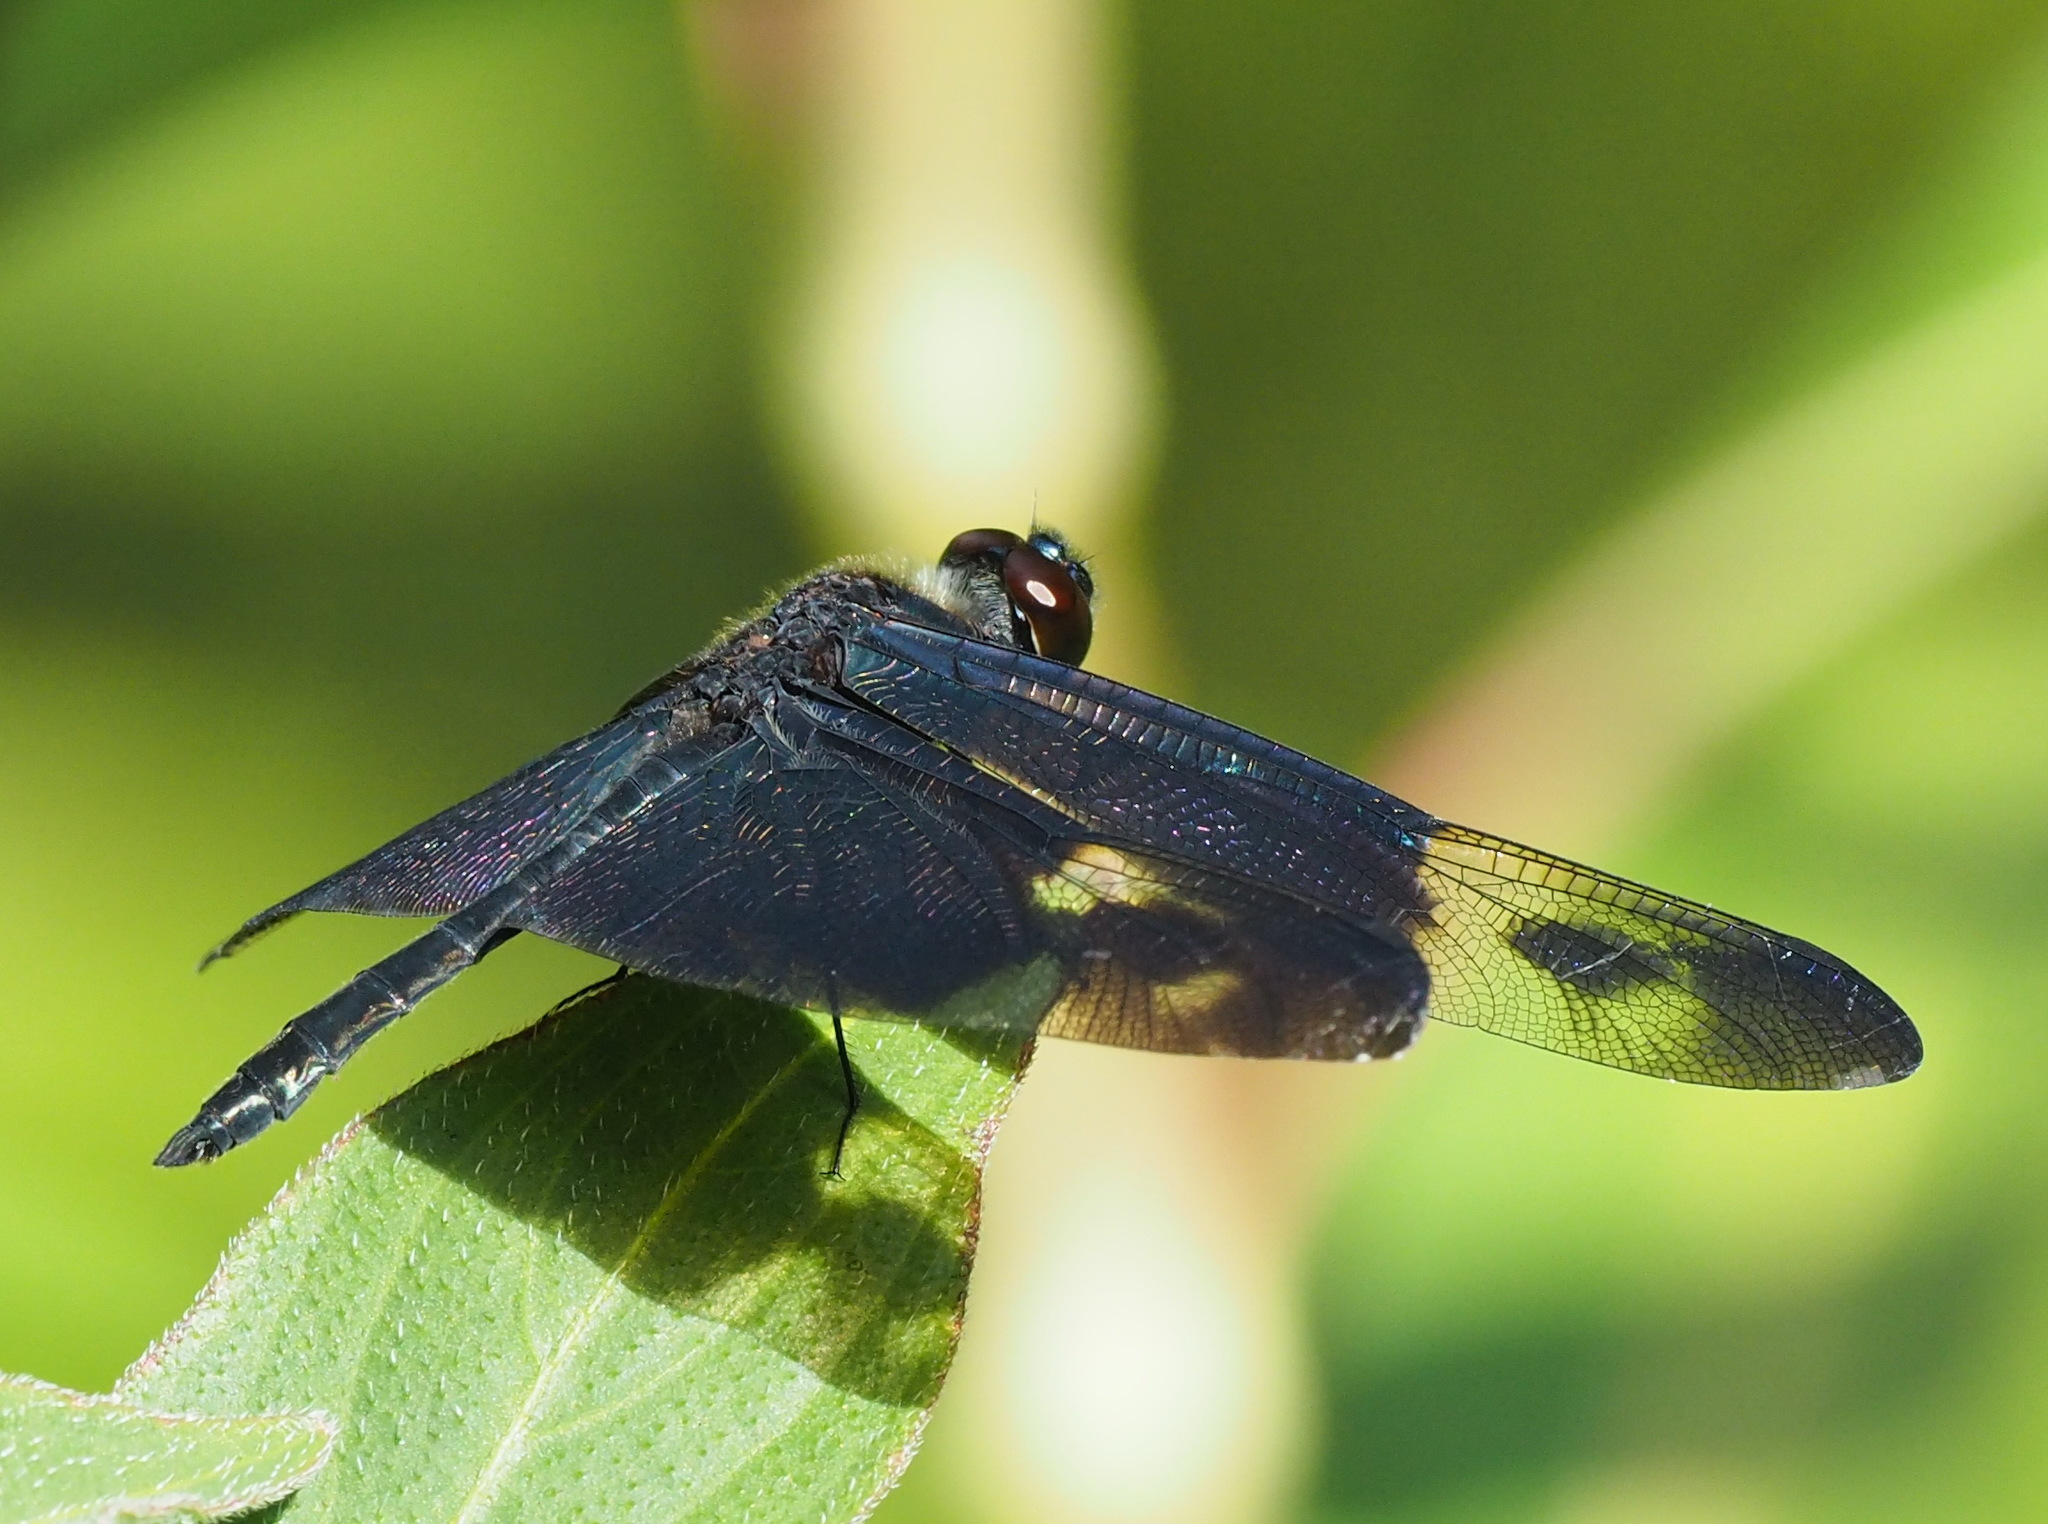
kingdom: Animalia
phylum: Arthropoda
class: Insecta
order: Odonata
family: Libellulidae
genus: Rhyothemis
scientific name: Rhyothemis regia
